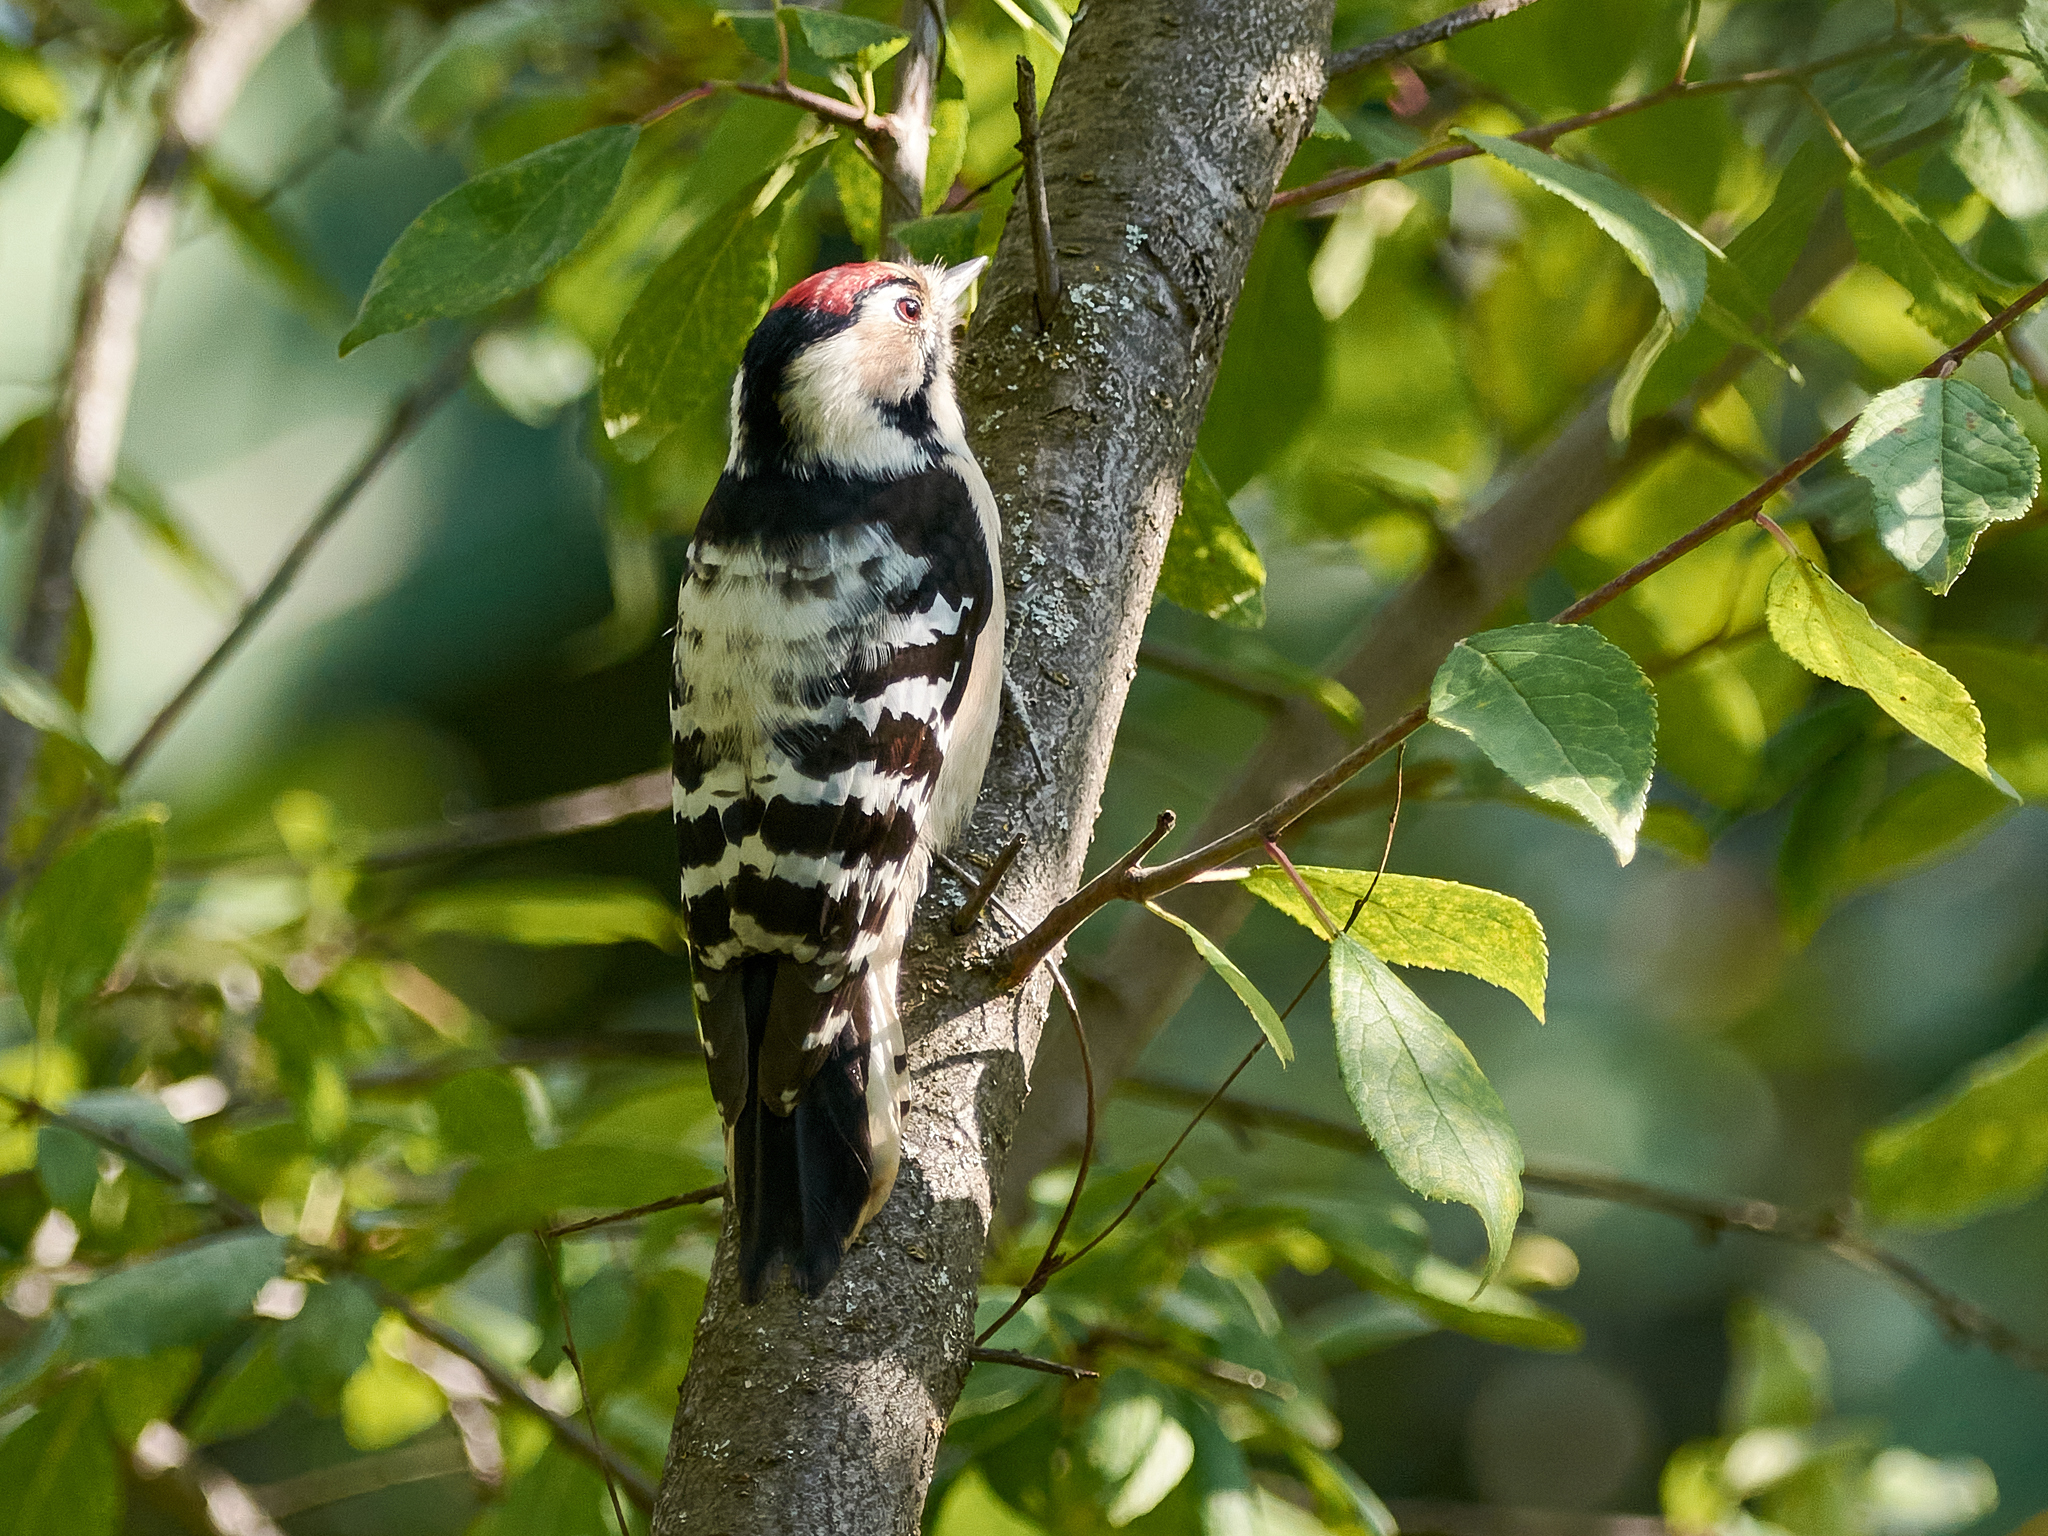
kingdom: Animalia
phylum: Chordata
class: Aves
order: Piciformes
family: Picidae
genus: Dryobates
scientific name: Dryobates minor
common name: Lesser spotted woodpecker
